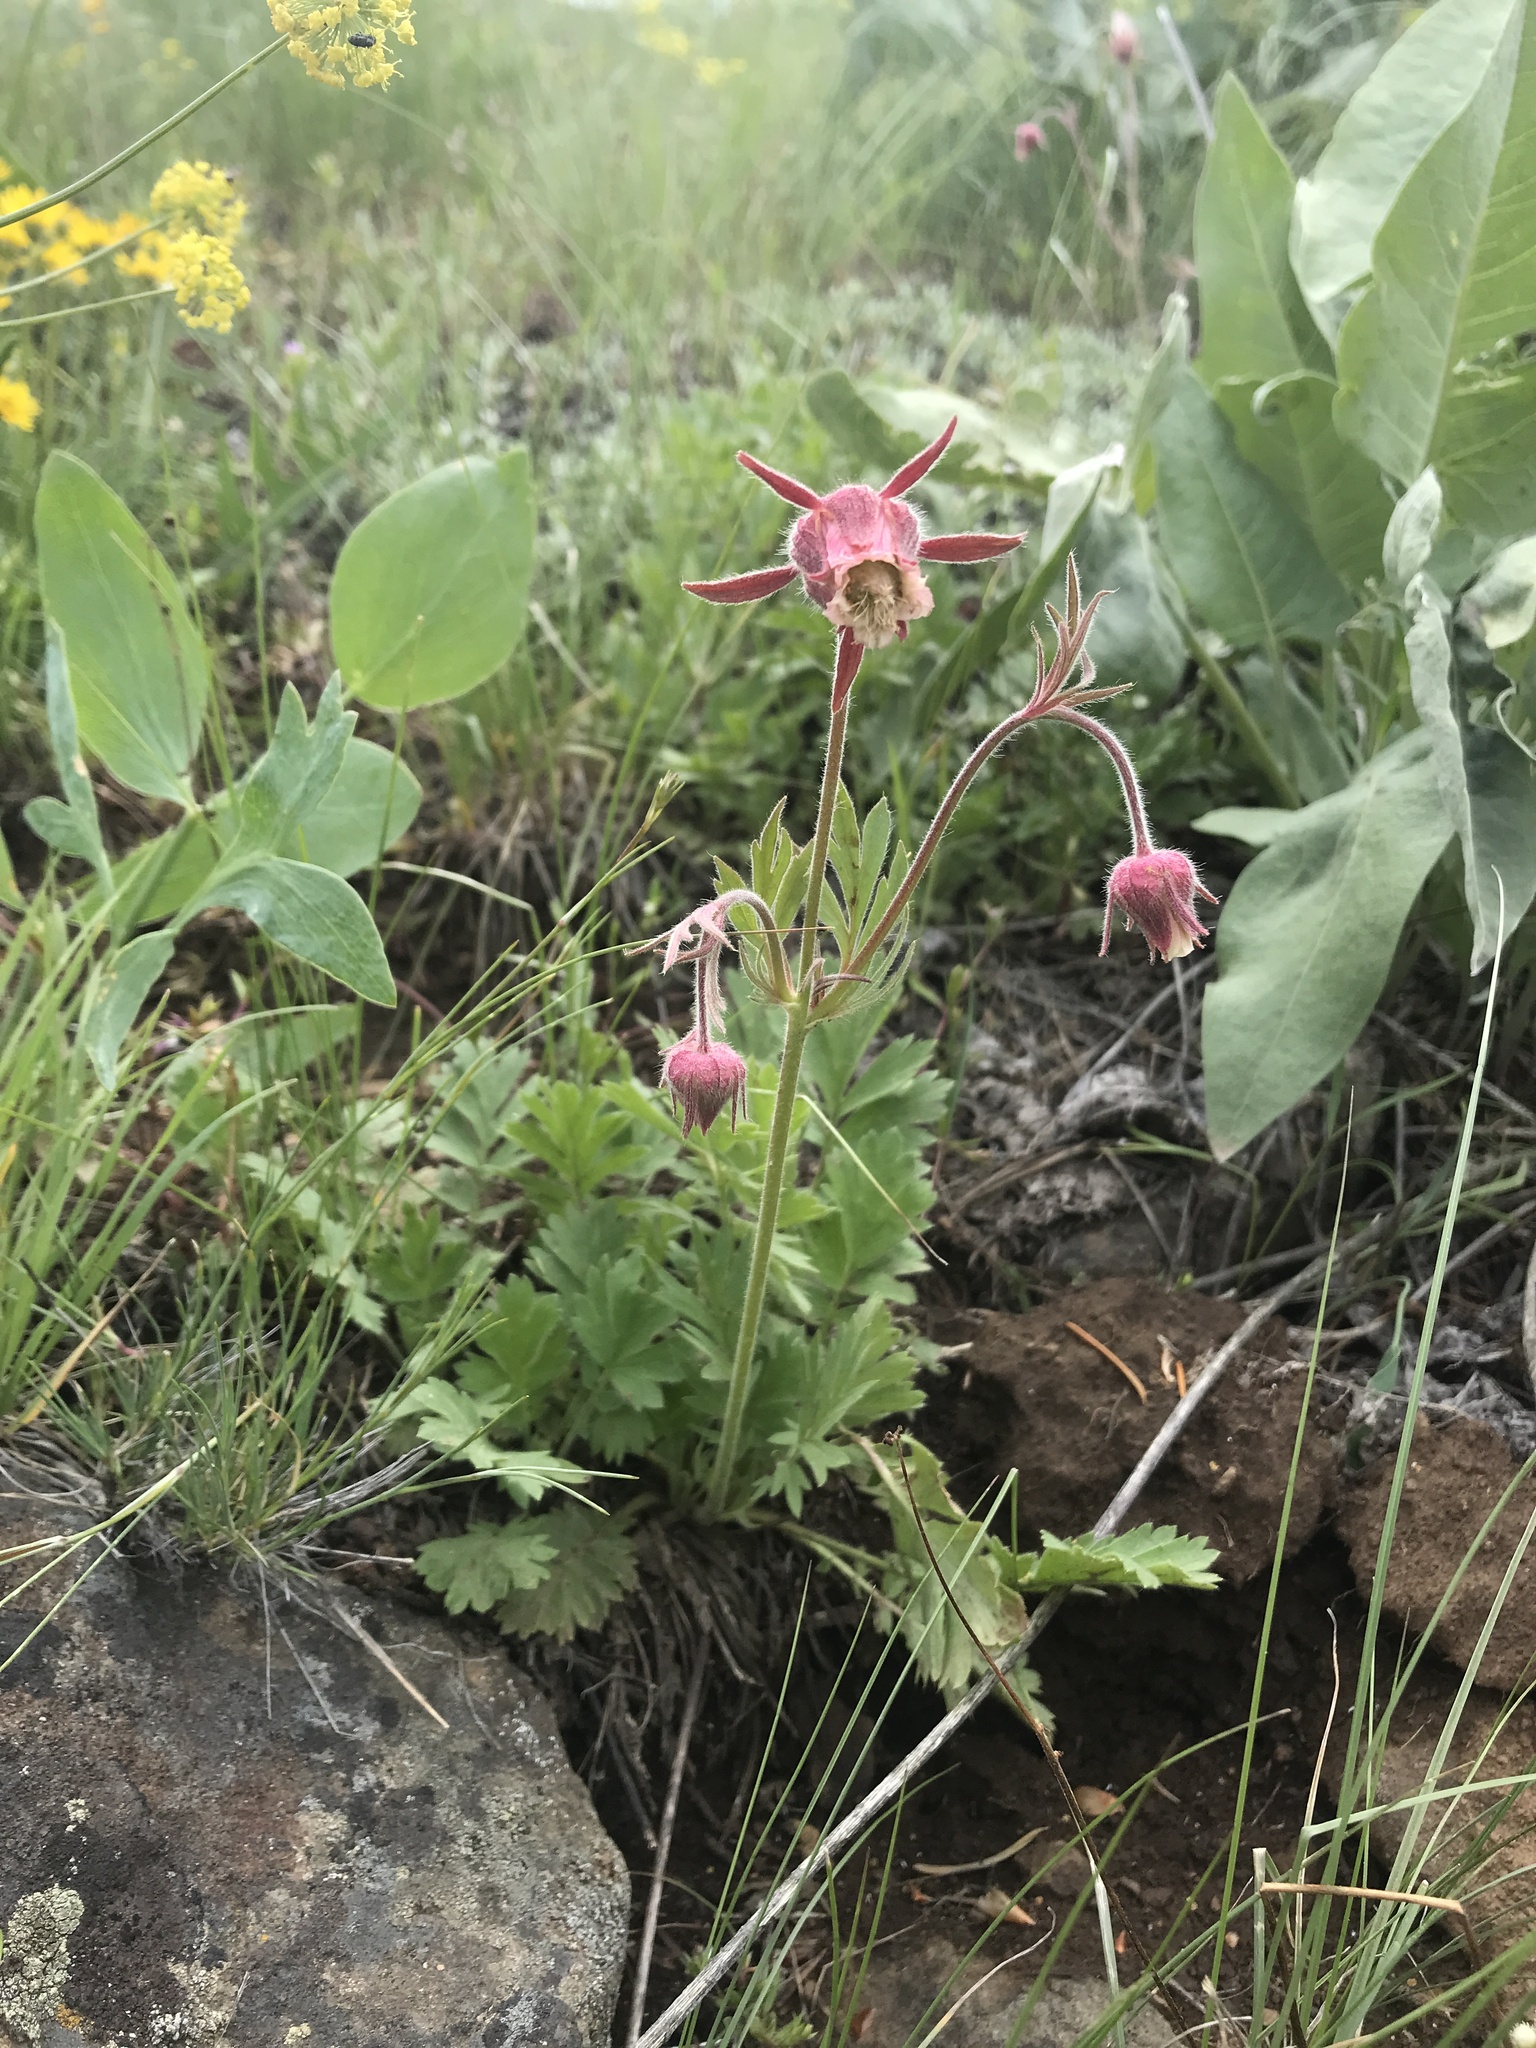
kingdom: Plantae
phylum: Tracheophyta
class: Magnoliopsida
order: Rosales
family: Rosaceae
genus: Geum
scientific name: Geum triflorum
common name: Old man's whiskers
